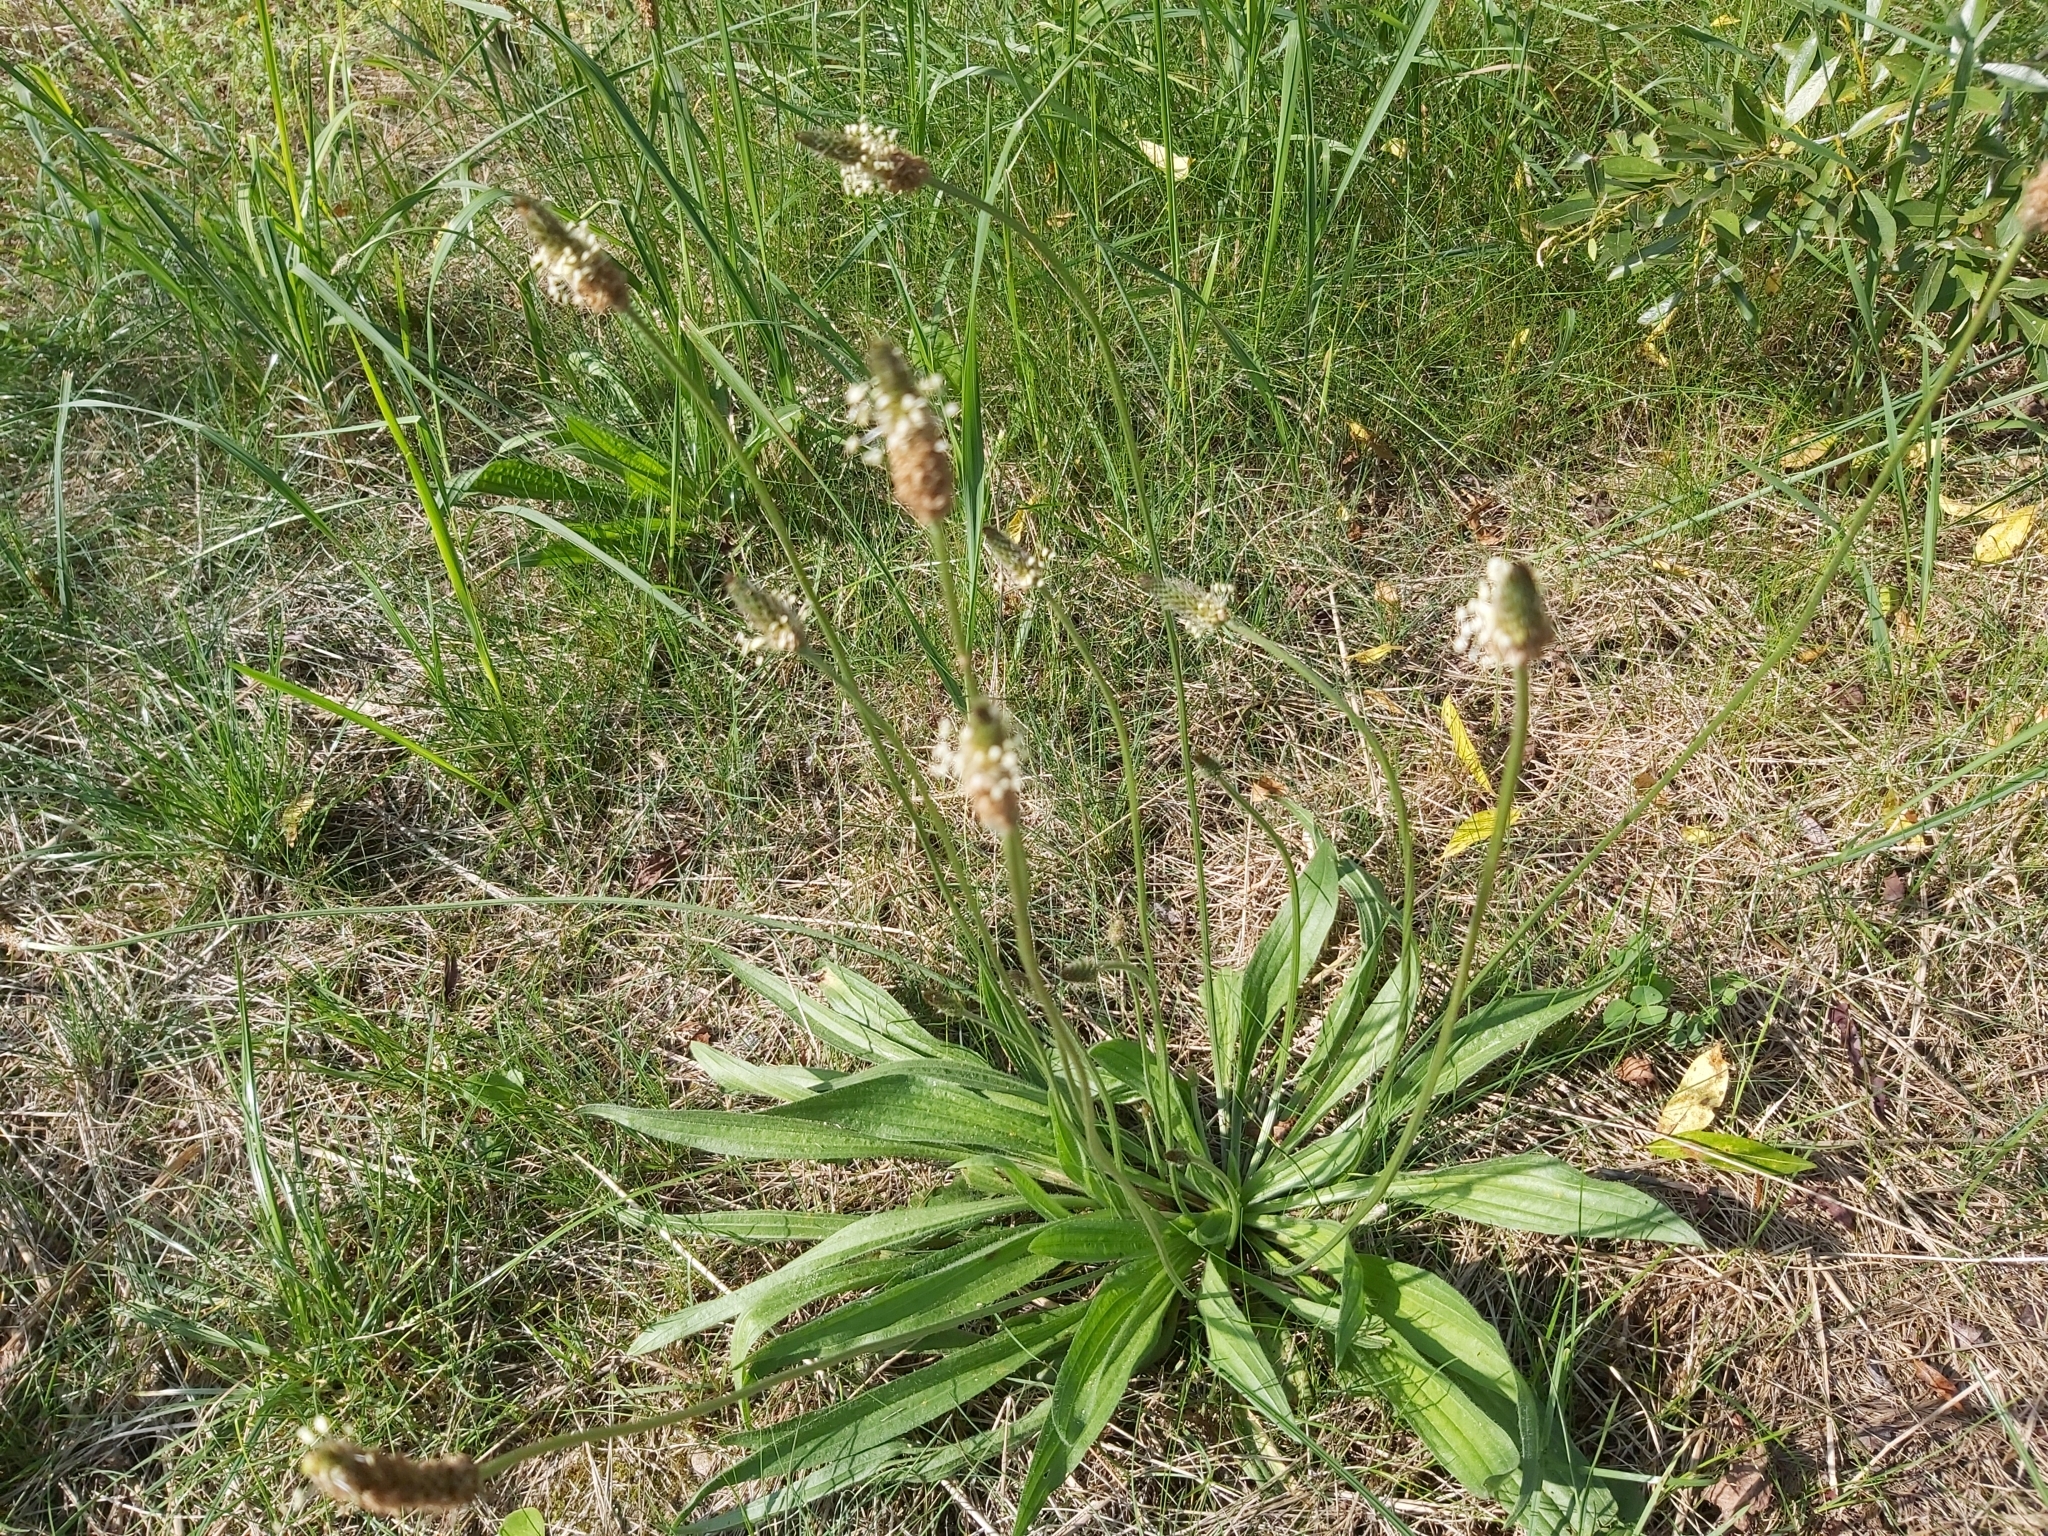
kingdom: Plantae
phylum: Tracheophyta
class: Magnoliopsida
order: Lamiales
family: Plantaginaceae
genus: Plantago
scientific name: Plantago lanceolata
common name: Ribwort plantain
